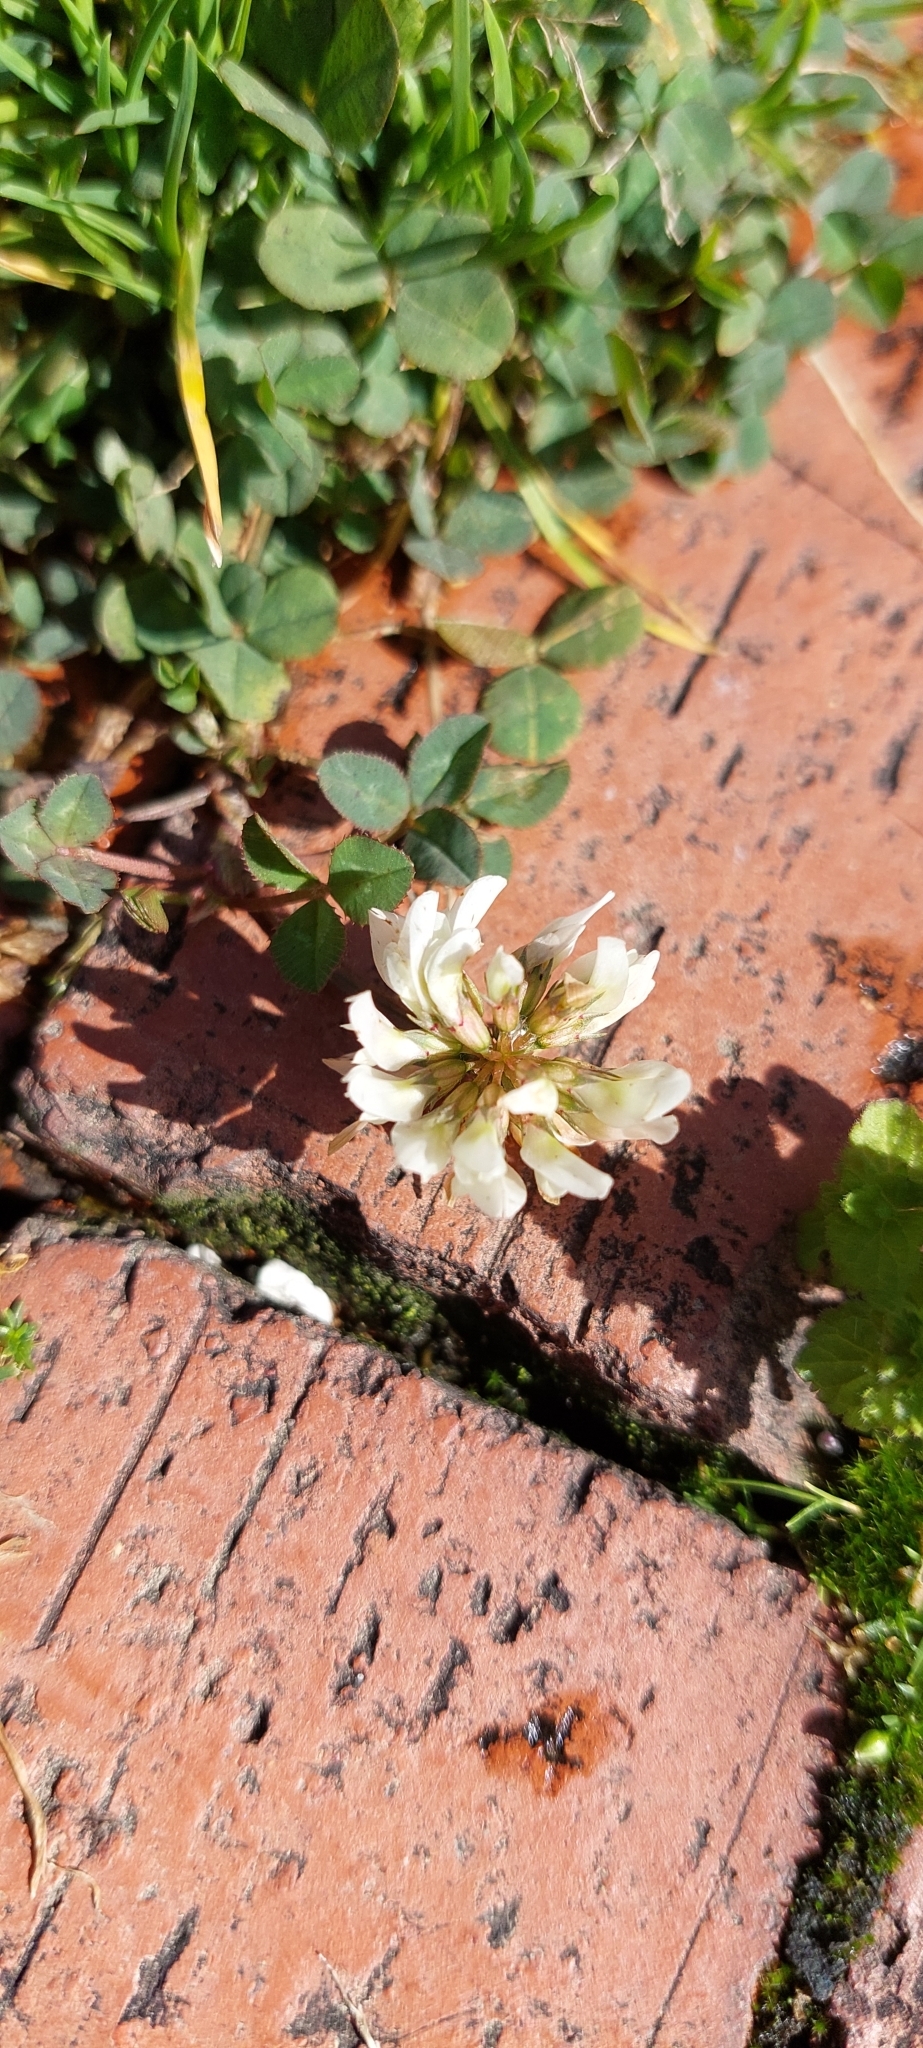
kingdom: Plantae
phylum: Tracheophyta
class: Magnoliopsida
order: Fabales
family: Fabaceae
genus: Trifolium
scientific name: Trifolium repens
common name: White clover
